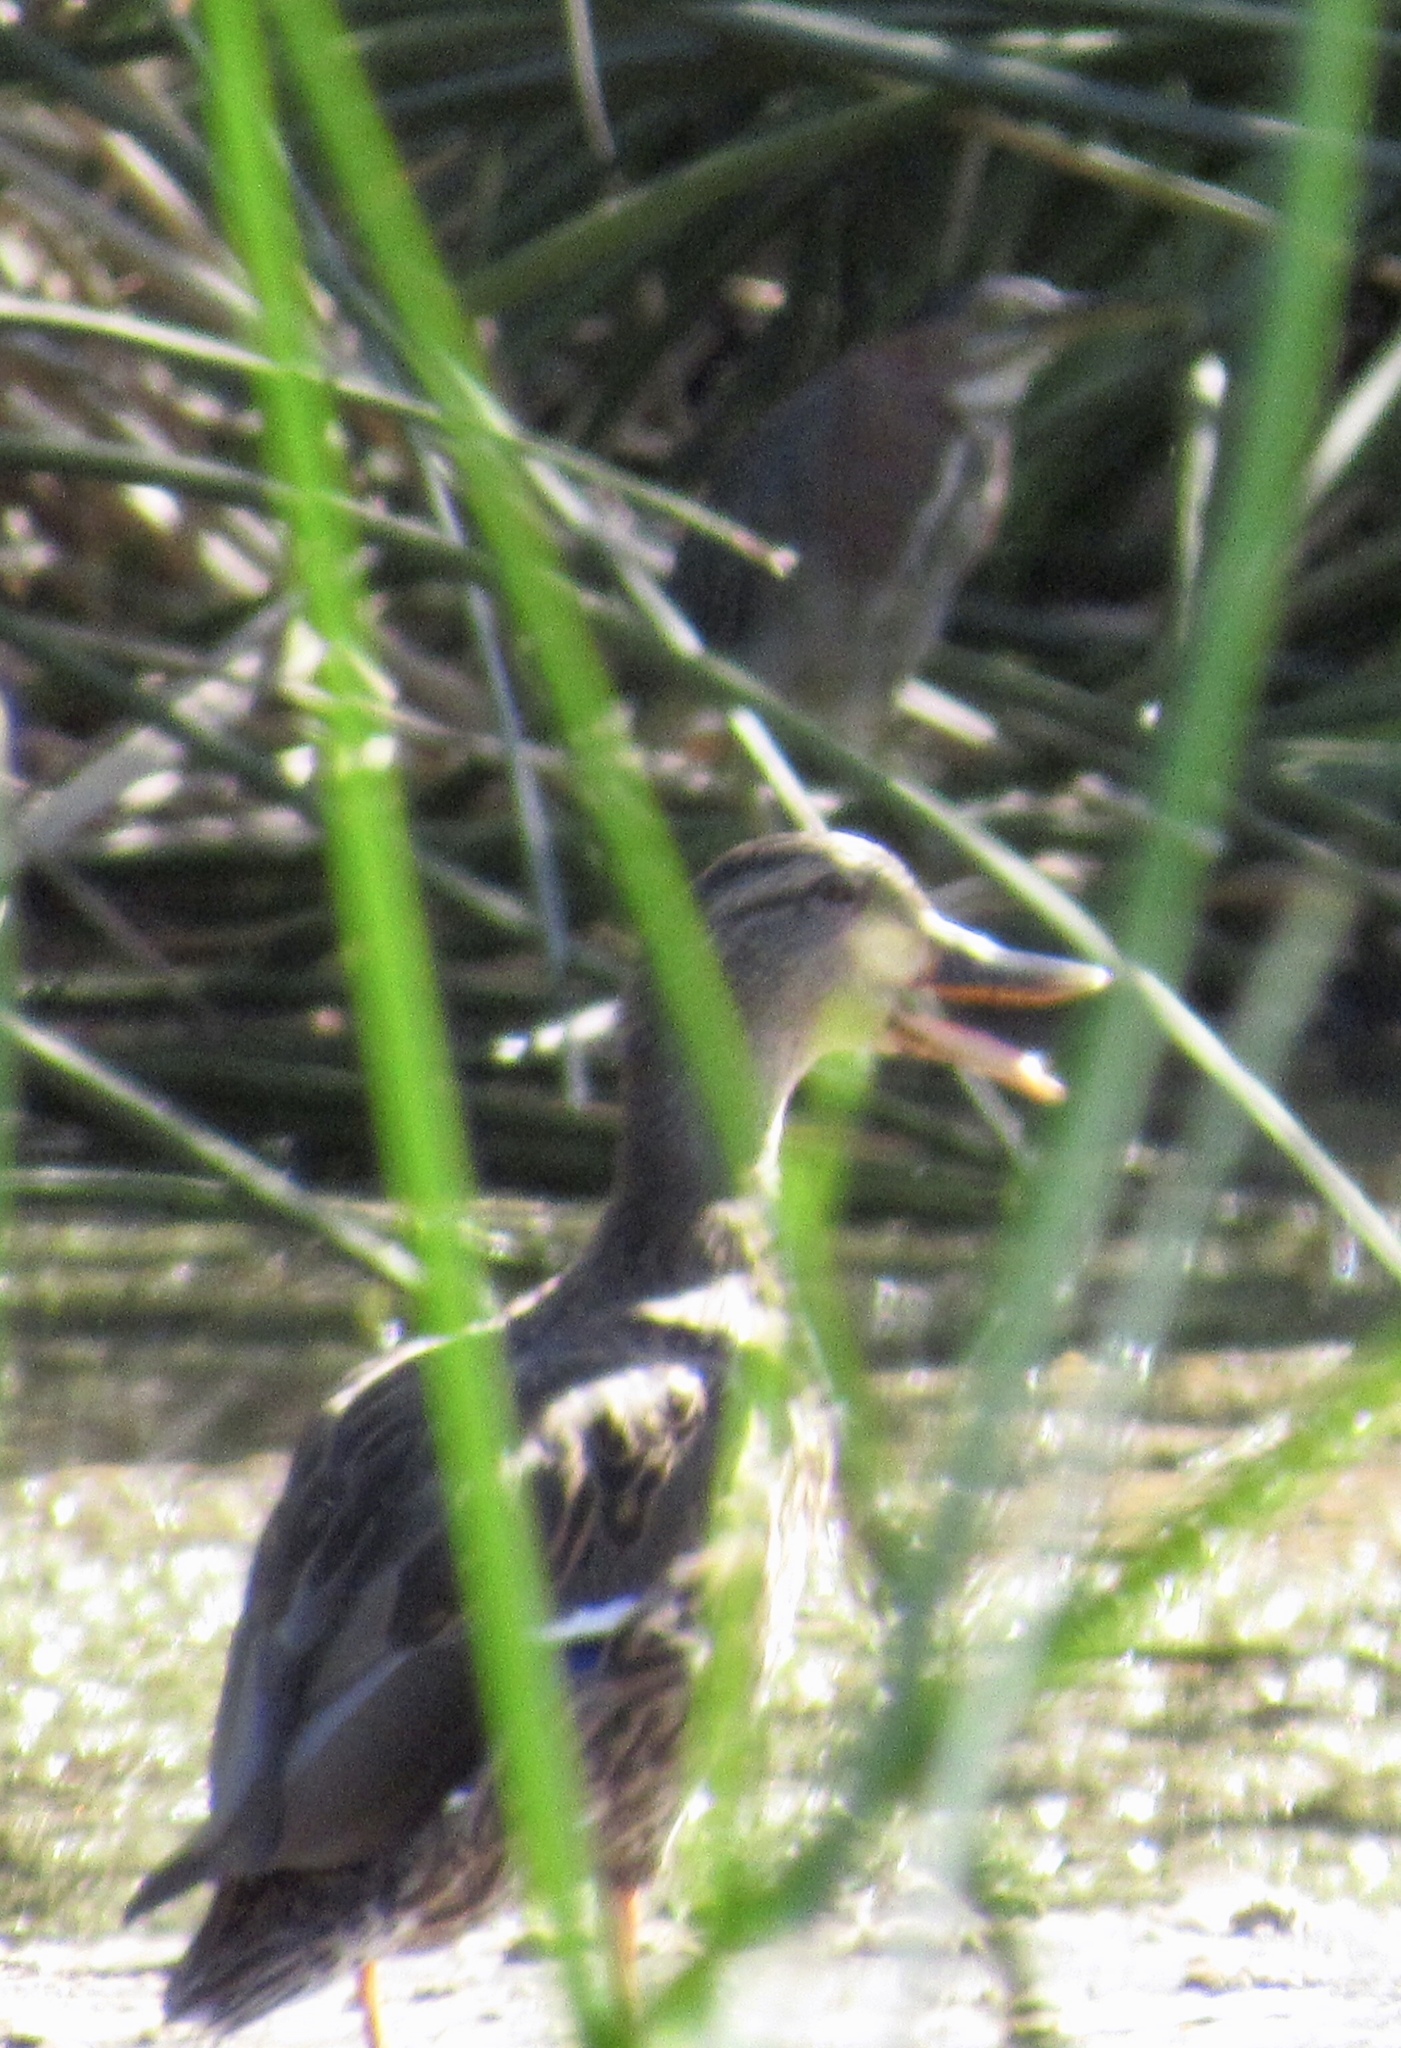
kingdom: Animalia
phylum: Chordata
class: Aves
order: Anseriformes
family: Anatidae
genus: Anas
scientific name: Anas platyrhynchos
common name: Mallard
